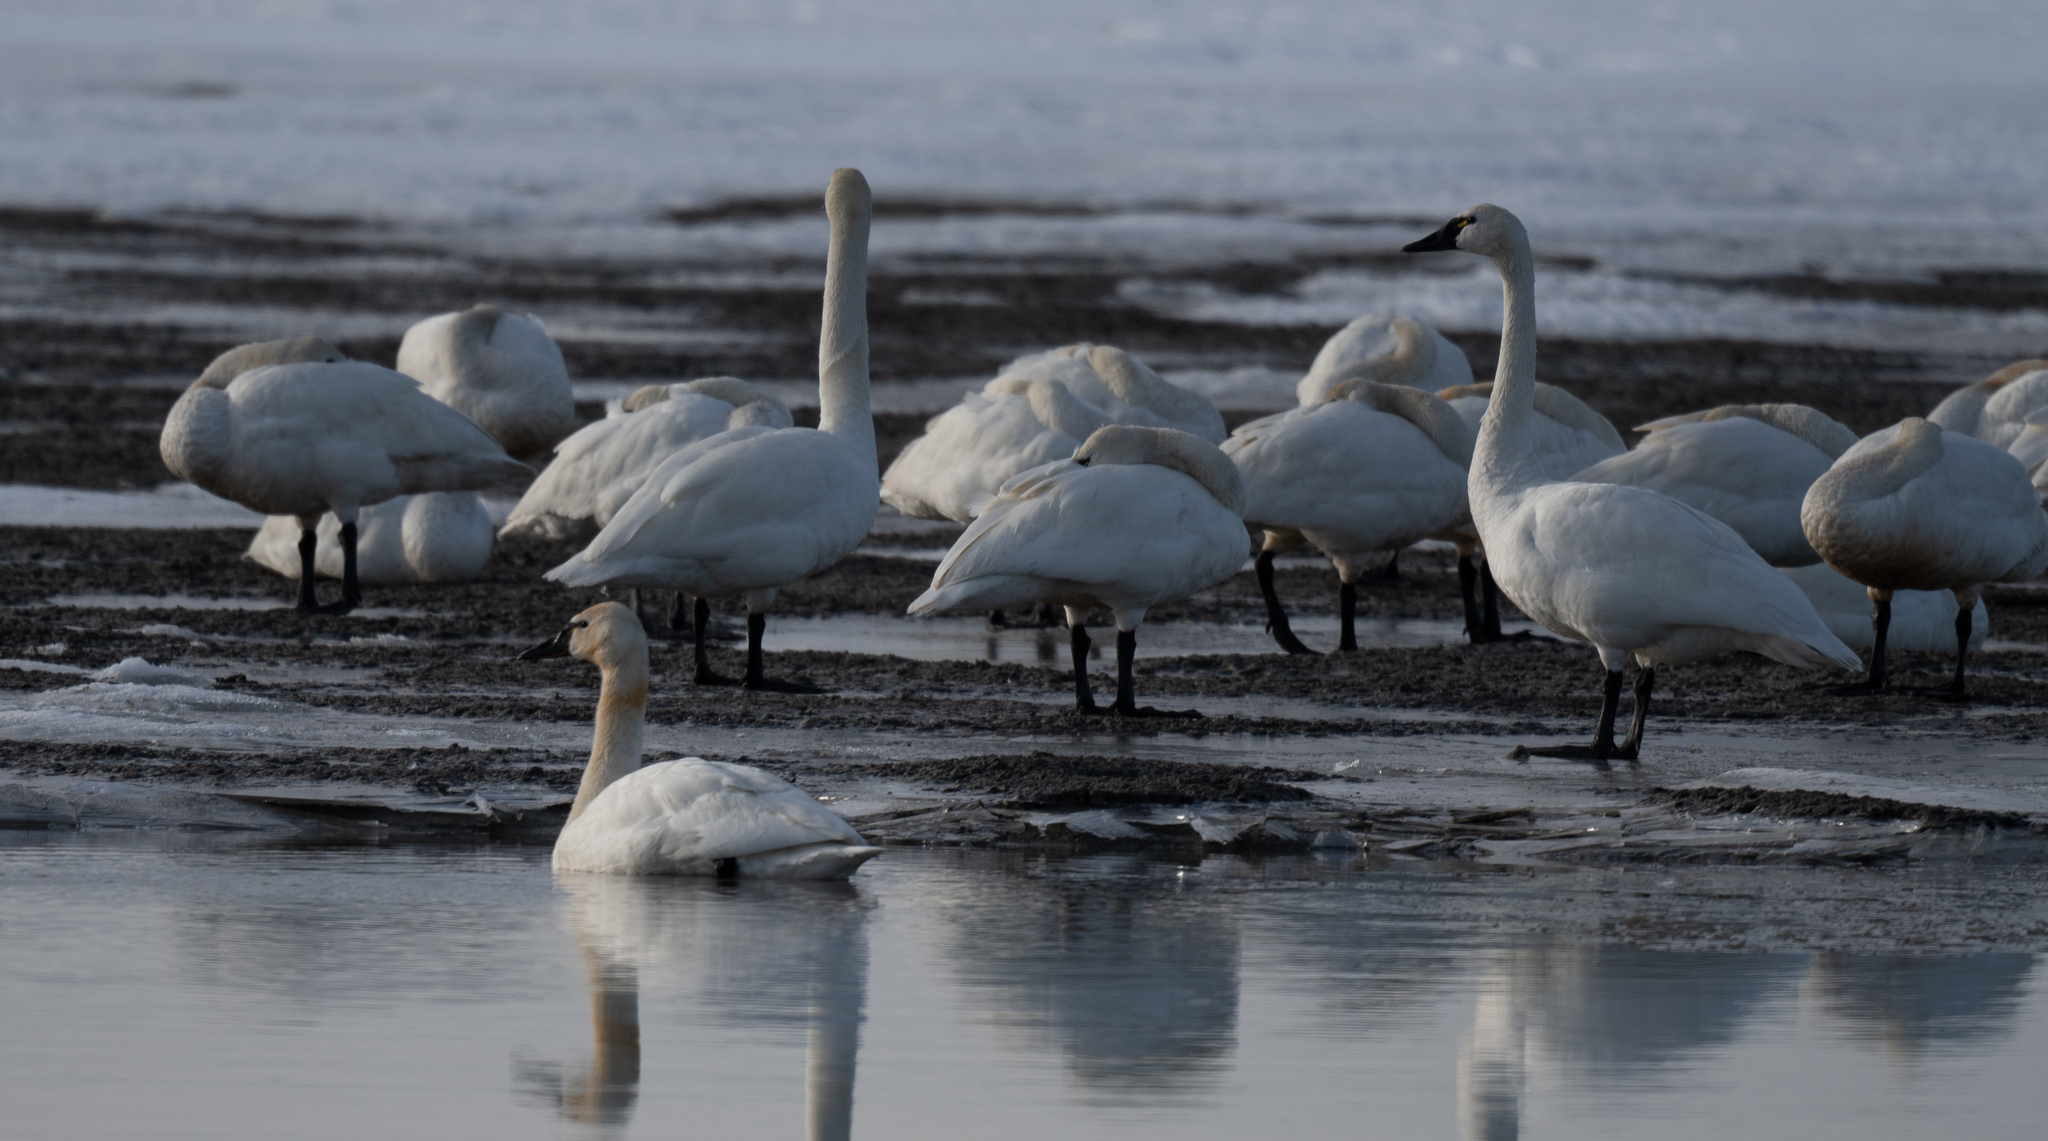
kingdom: Animalia
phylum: Chordata
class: Aves
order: Anseriformes
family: Anatidae
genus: Cygnus
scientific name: Cygnus columbianus
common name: Tundra swan
